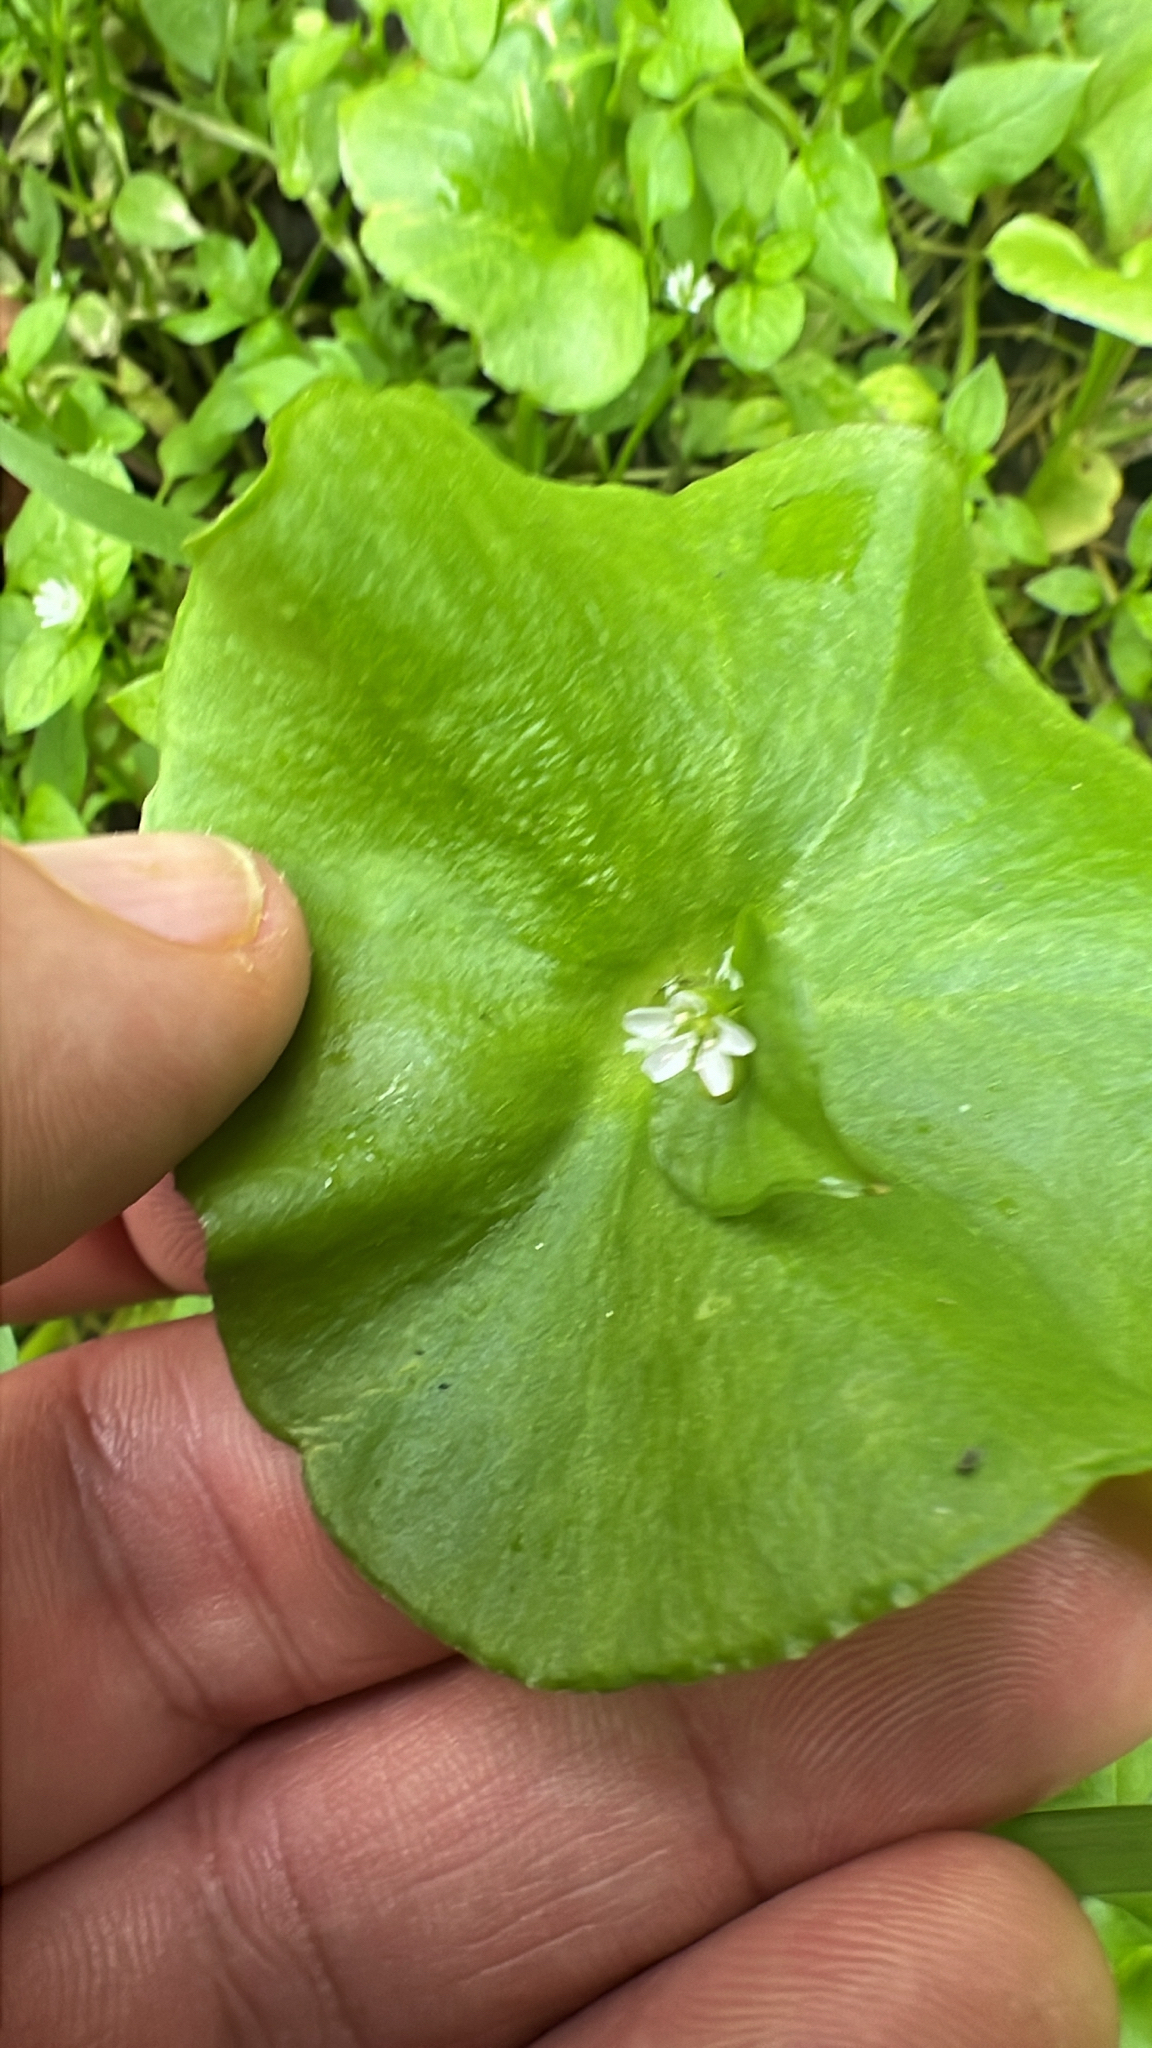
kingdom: Plantae
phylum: Tracheophyta
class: Magnoliopsida
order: Caryophyllales
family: Montiaceae
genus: Claytonia
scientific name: Claytonia perfoliata
